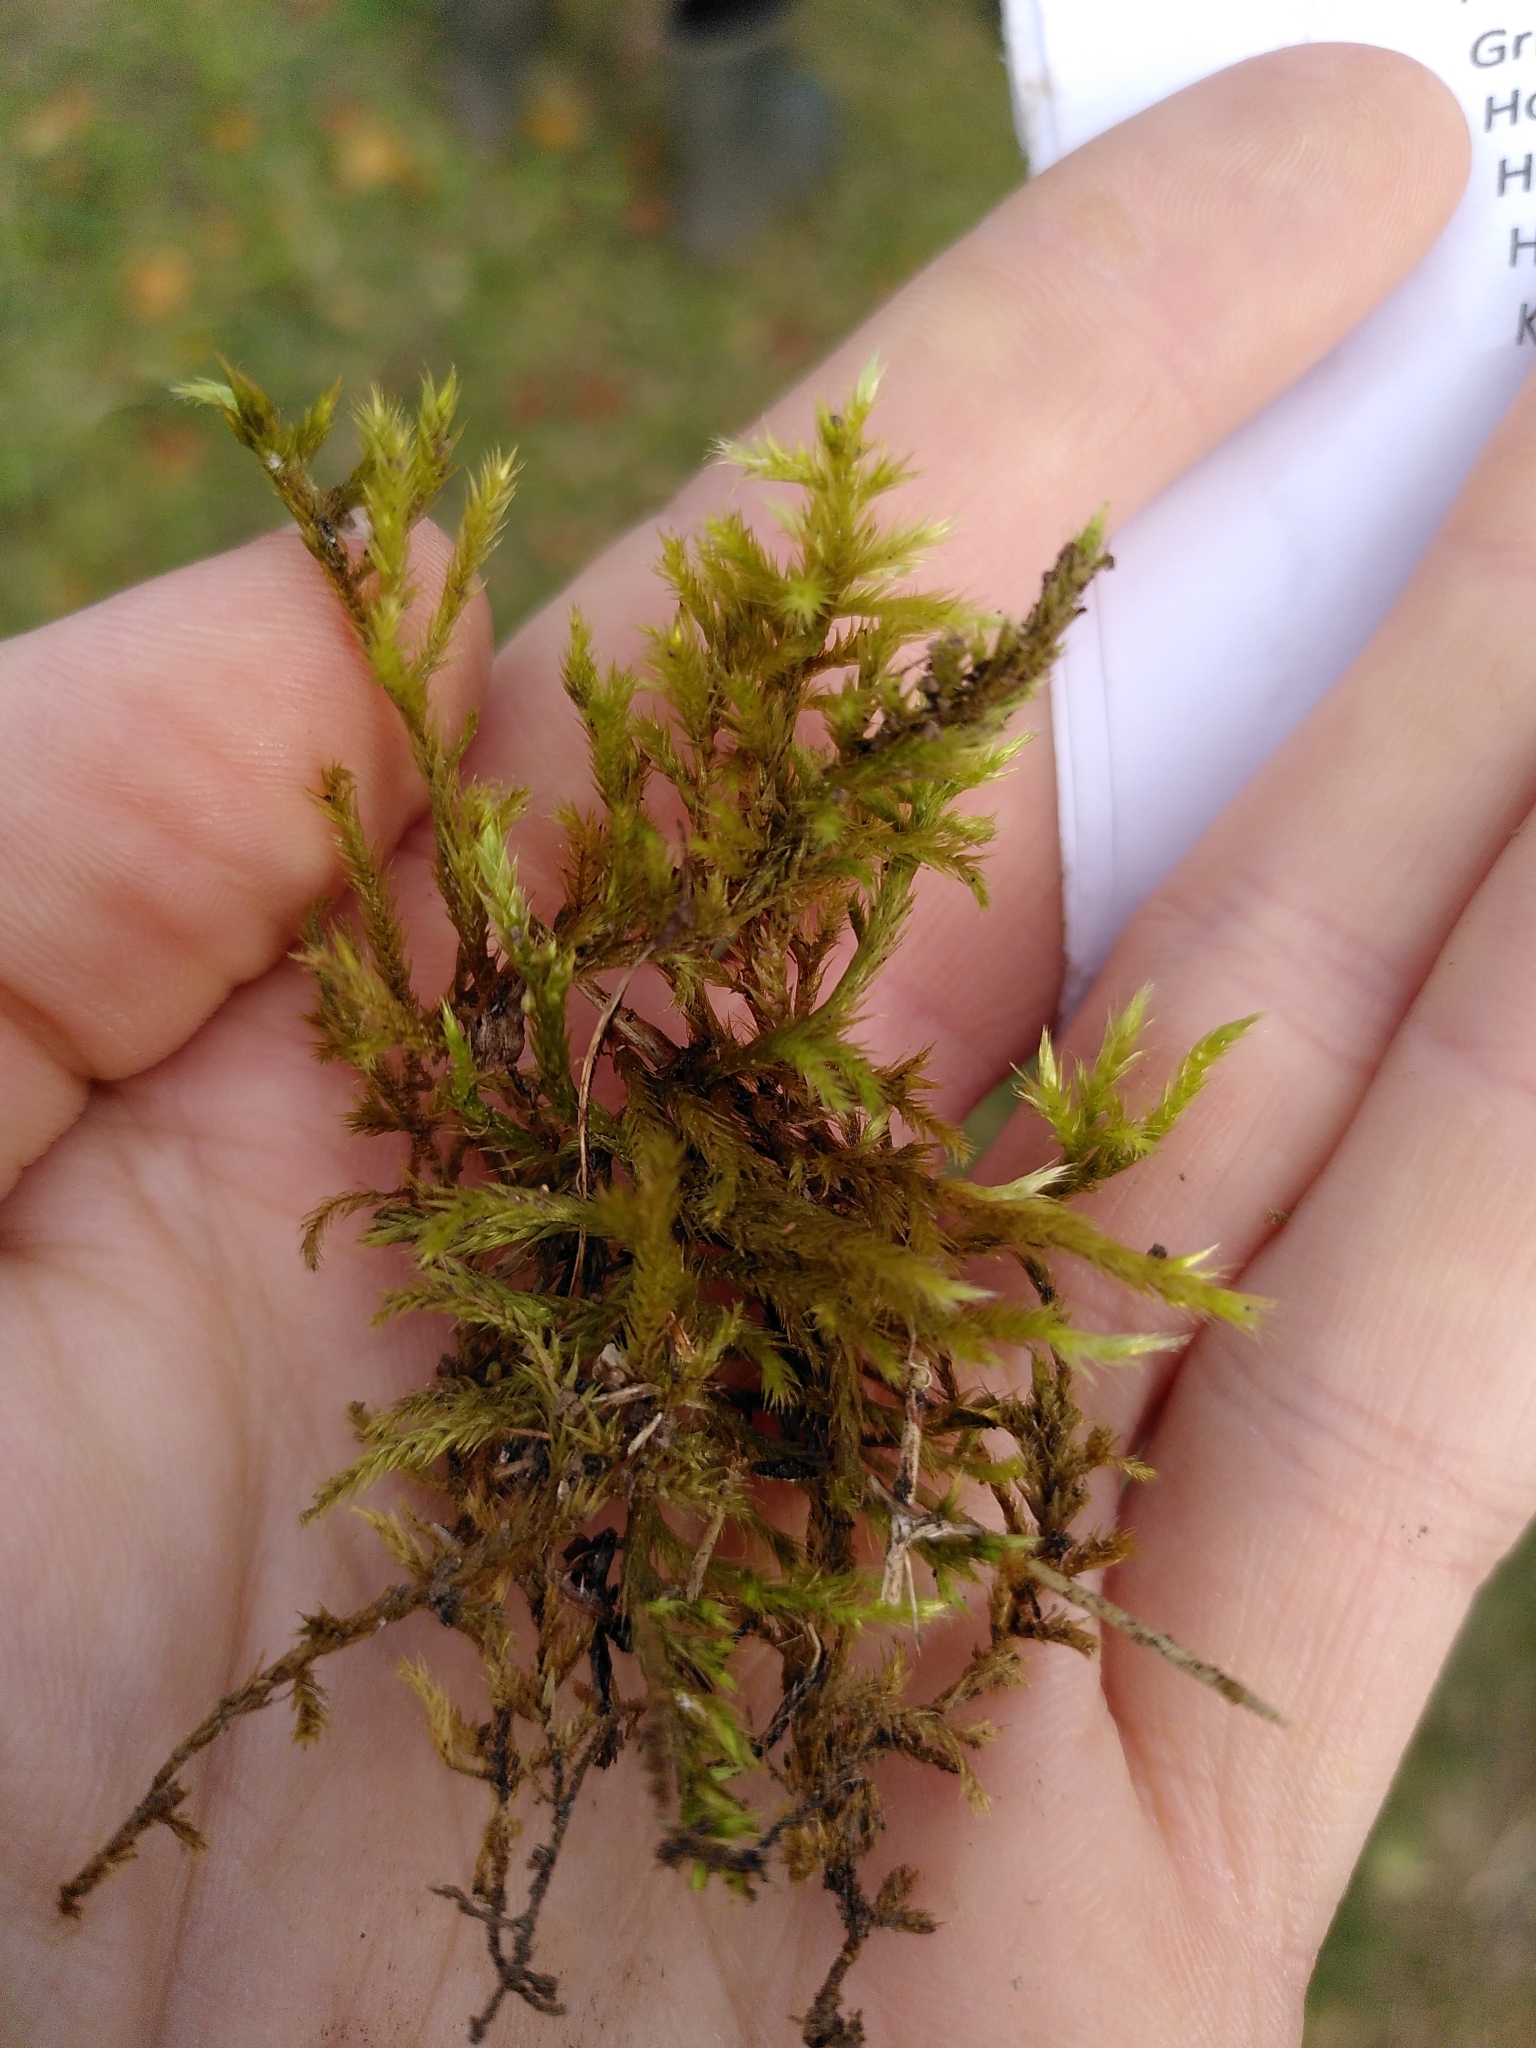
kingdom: Plantae
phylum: Bryophyta
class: Bryopsida
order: Hypnales
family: Brachytheciaceae
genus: Homalothecium
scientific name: Homalothecium lutescens
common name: Yellow feather-moss
